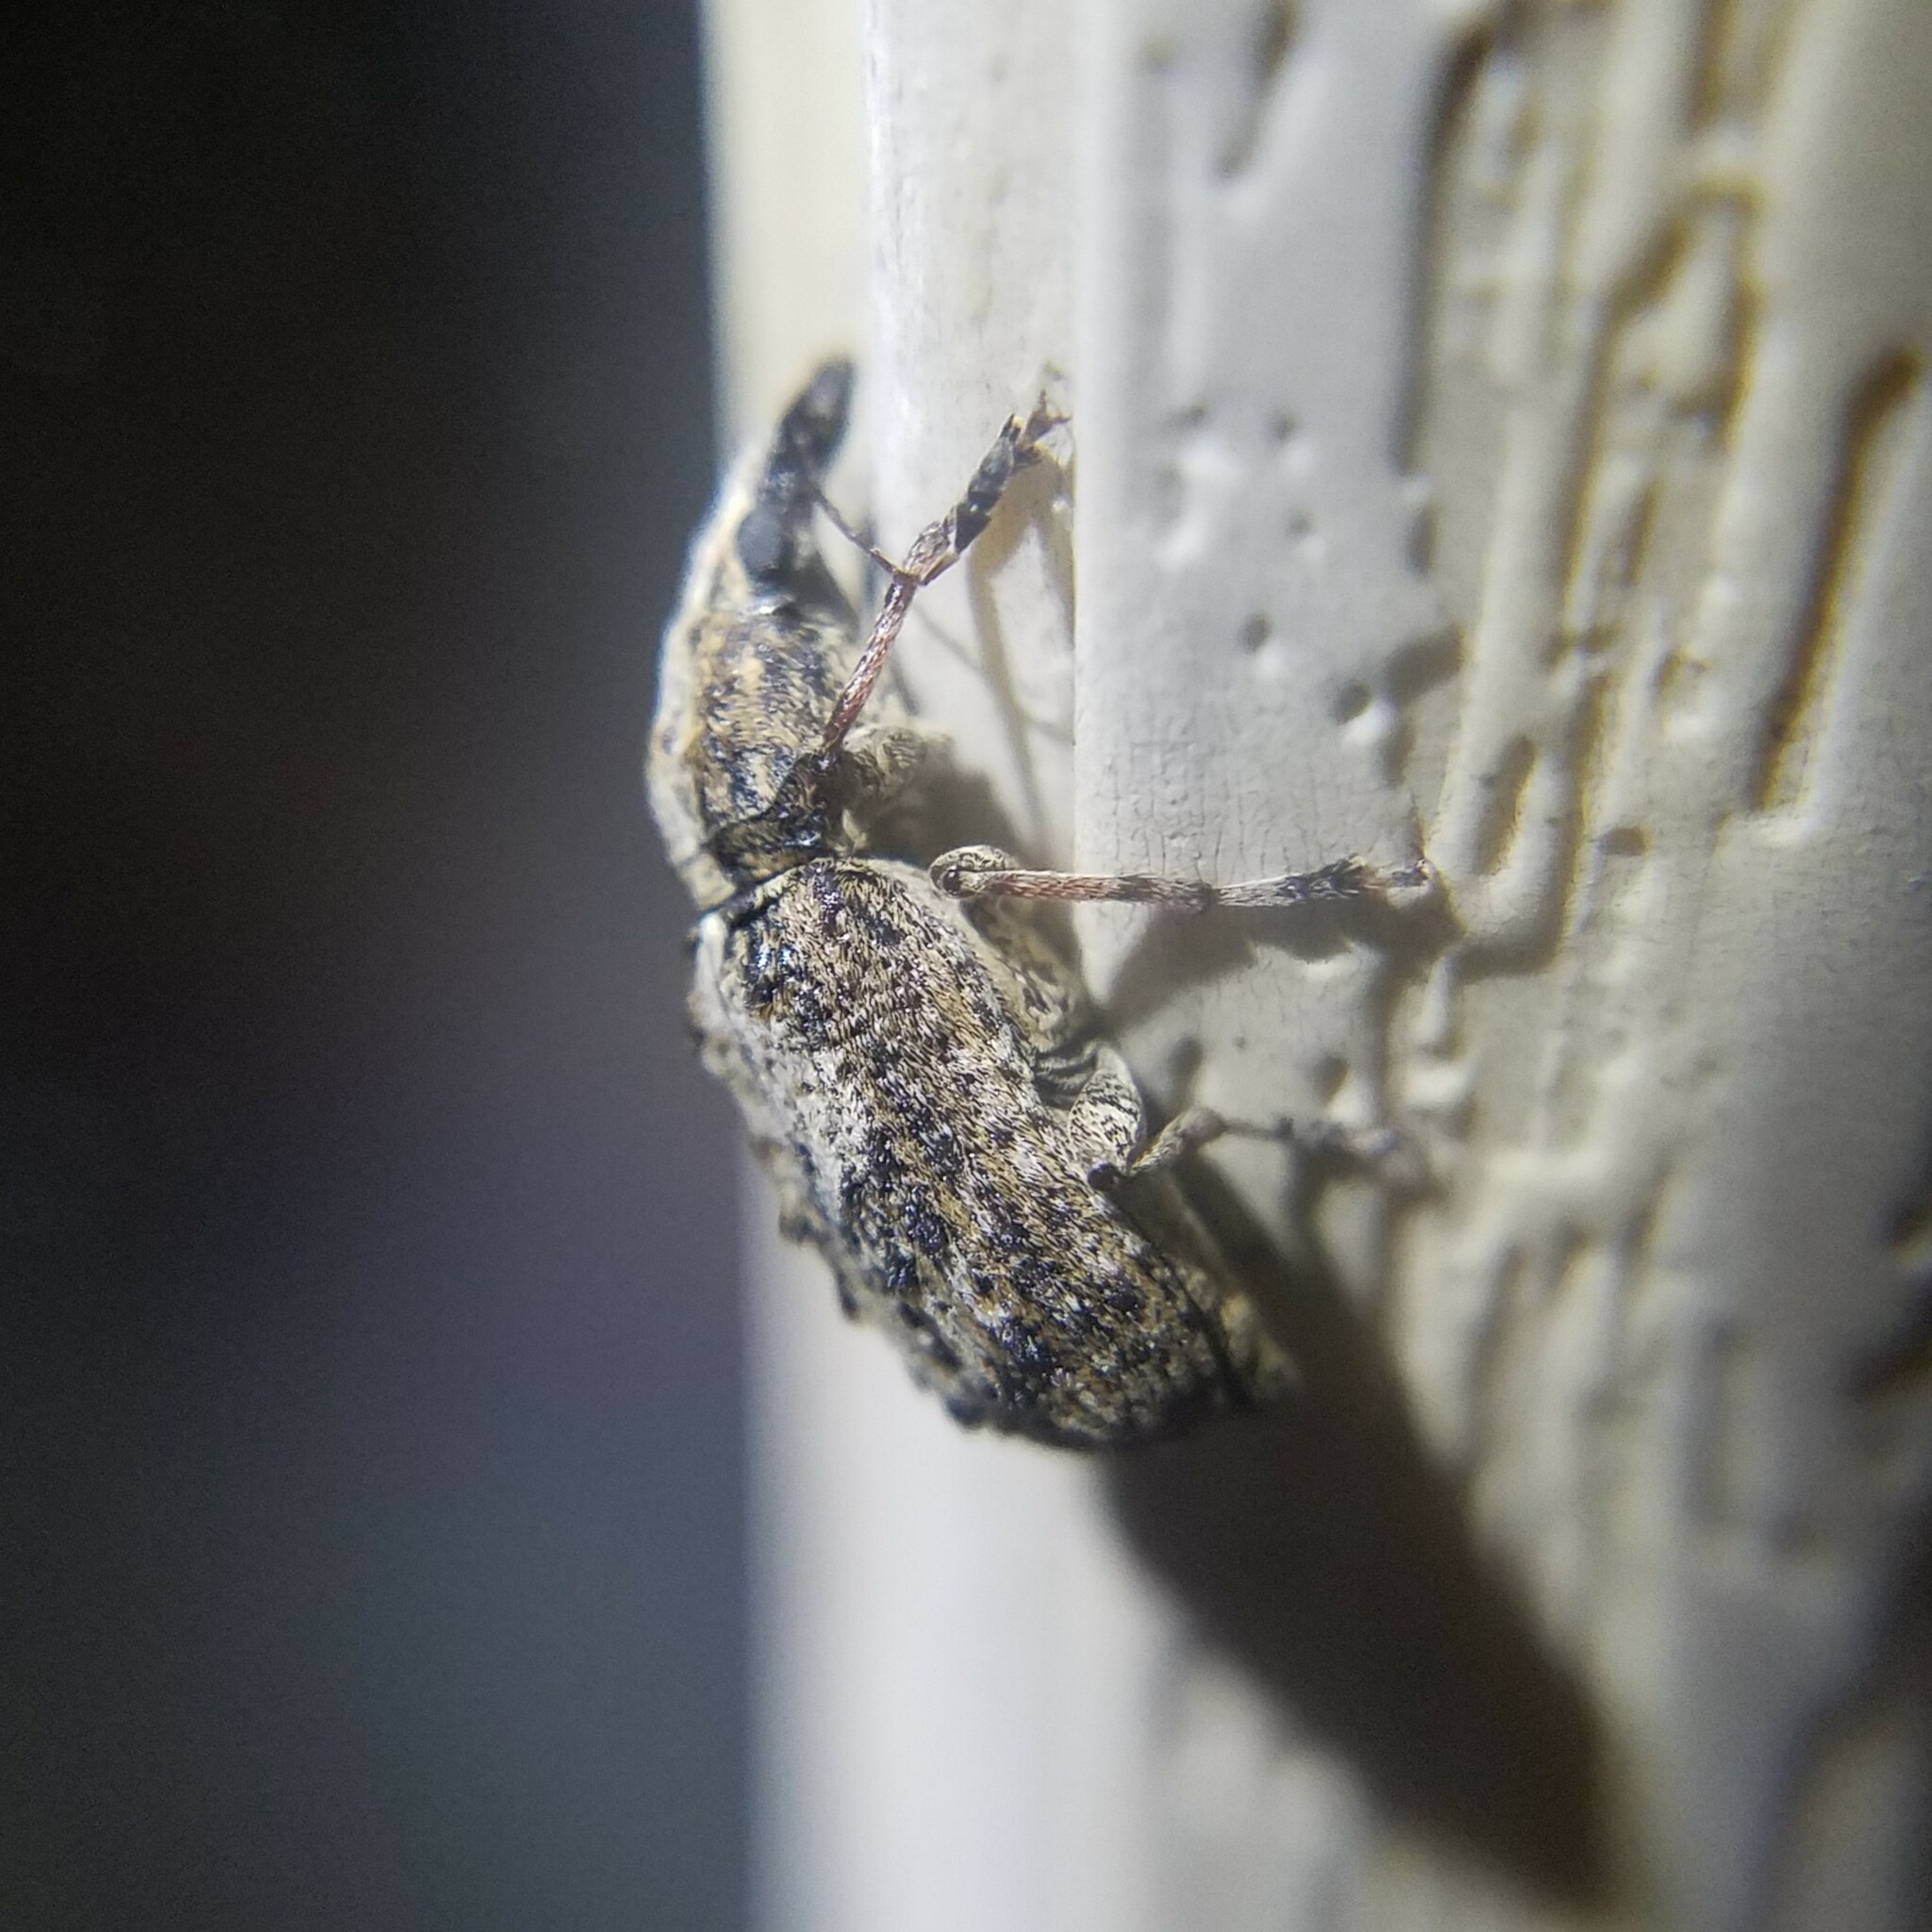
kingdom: Animalia
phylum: Arthropoda
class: Insecta
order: Coleoptera
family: Anthribidae
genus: Meconemus
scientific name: Meconemus infuscatus
